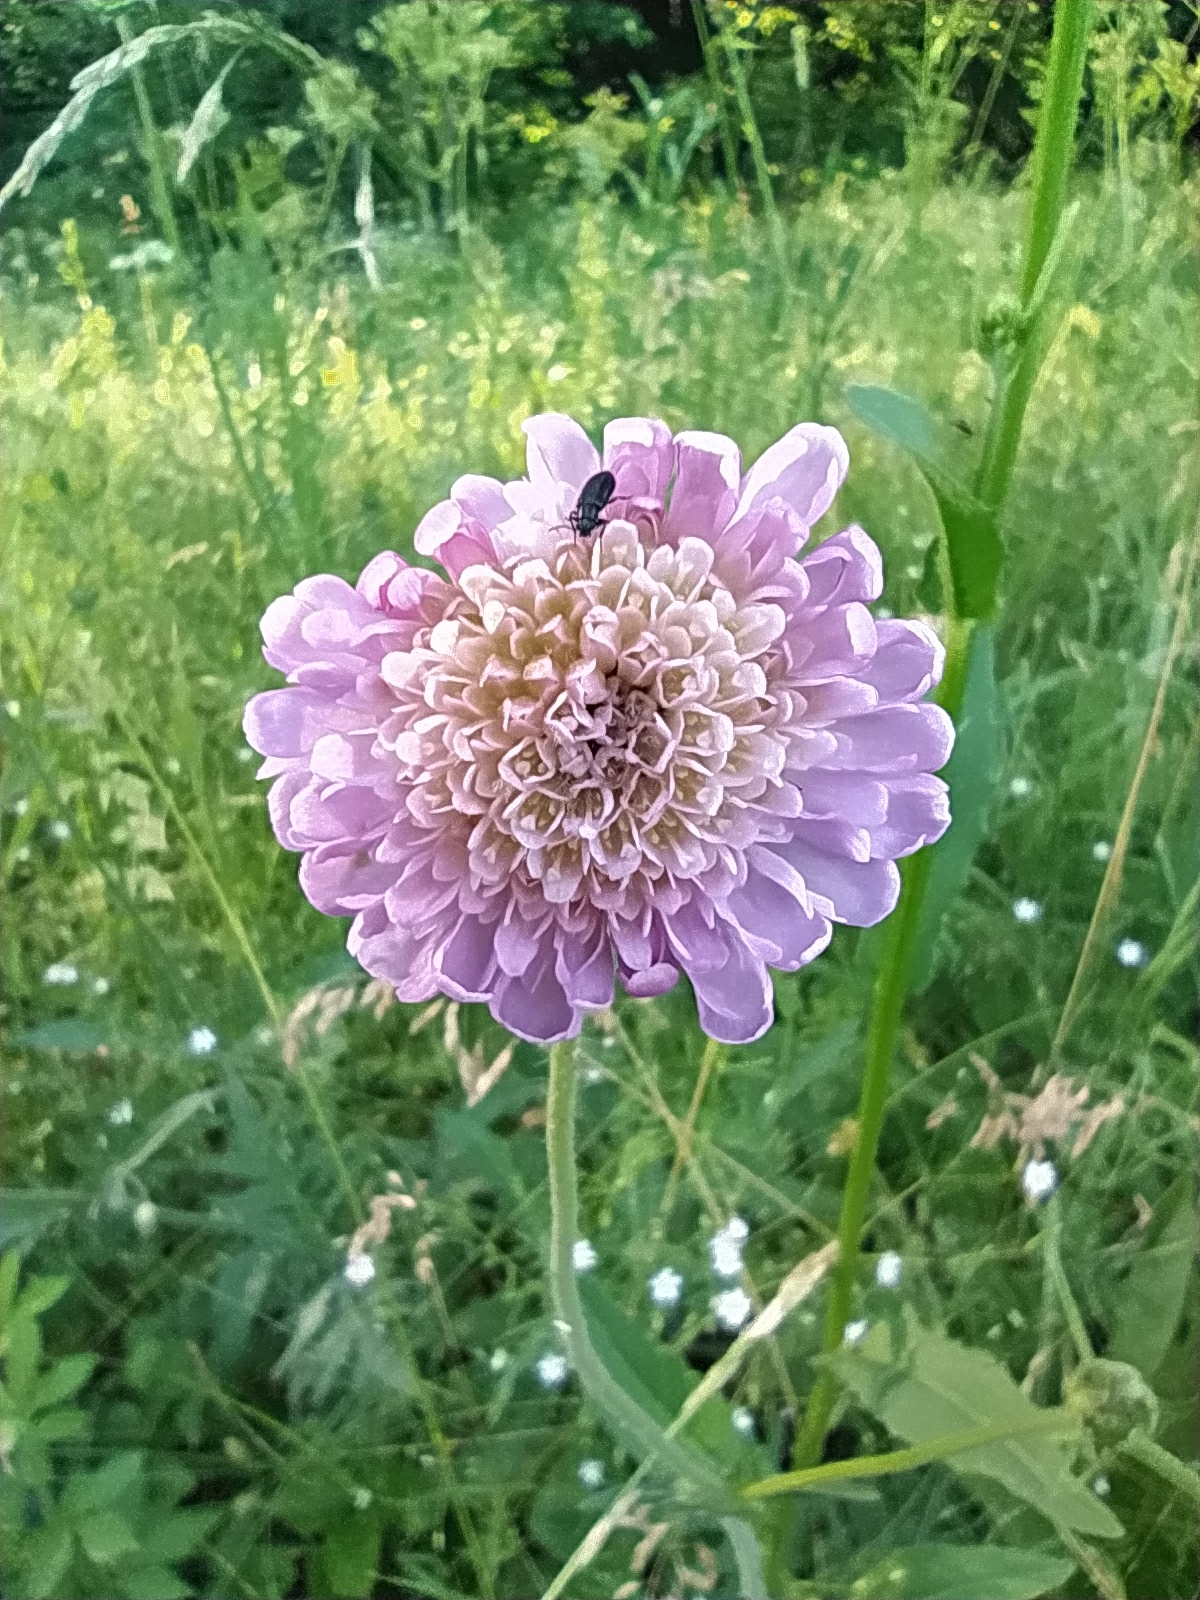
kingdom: Plantae
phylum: Tracheophyta
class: Magnoliopsida
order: Dipsacales
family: Caprifoliaceae
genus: Knautia
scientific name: Knautia arvensis
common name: Field scabiosa
